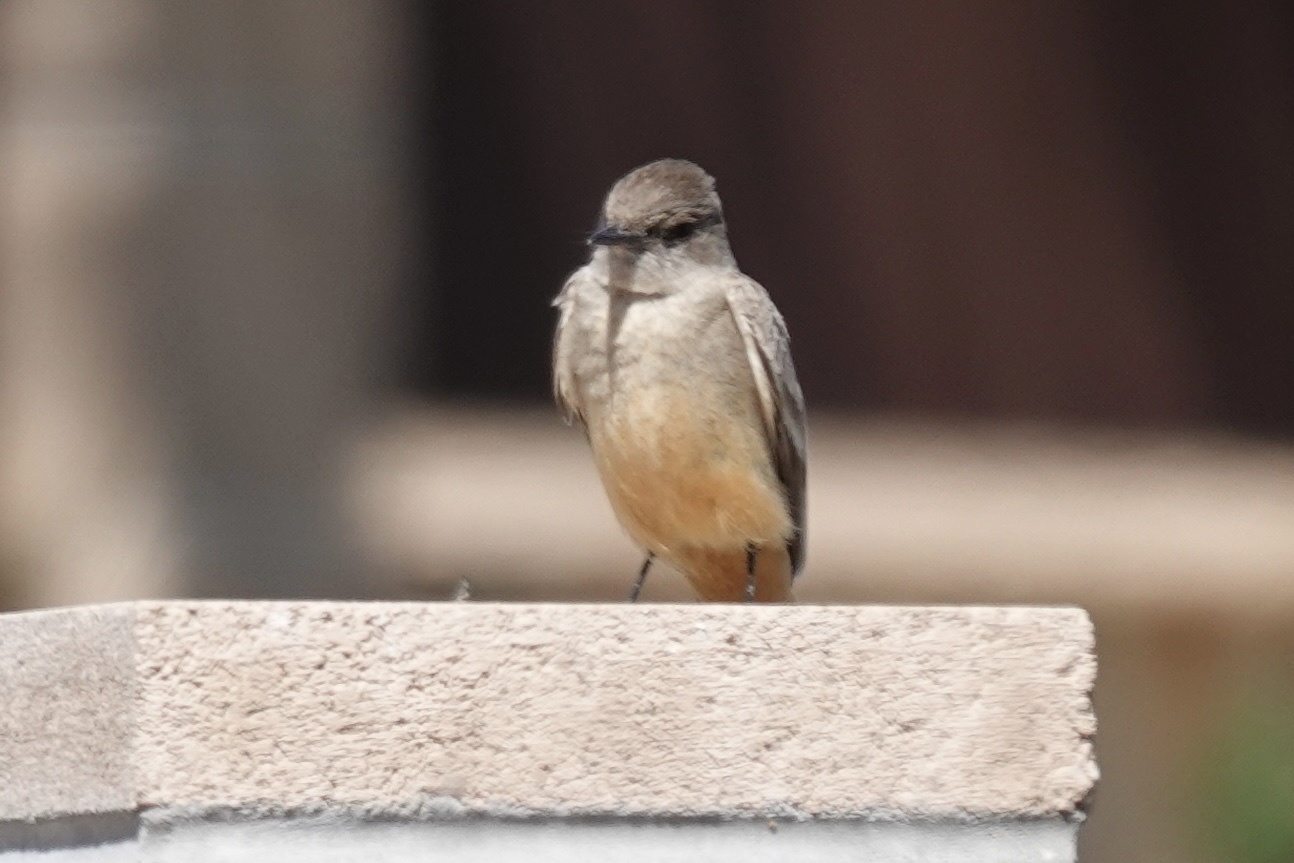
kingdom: Animalia
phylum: Chordata
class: Aves
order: Passeriformes
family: Tyrannidae
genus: Sayornis
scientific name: Sayornis saya
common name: Say's phoebe
